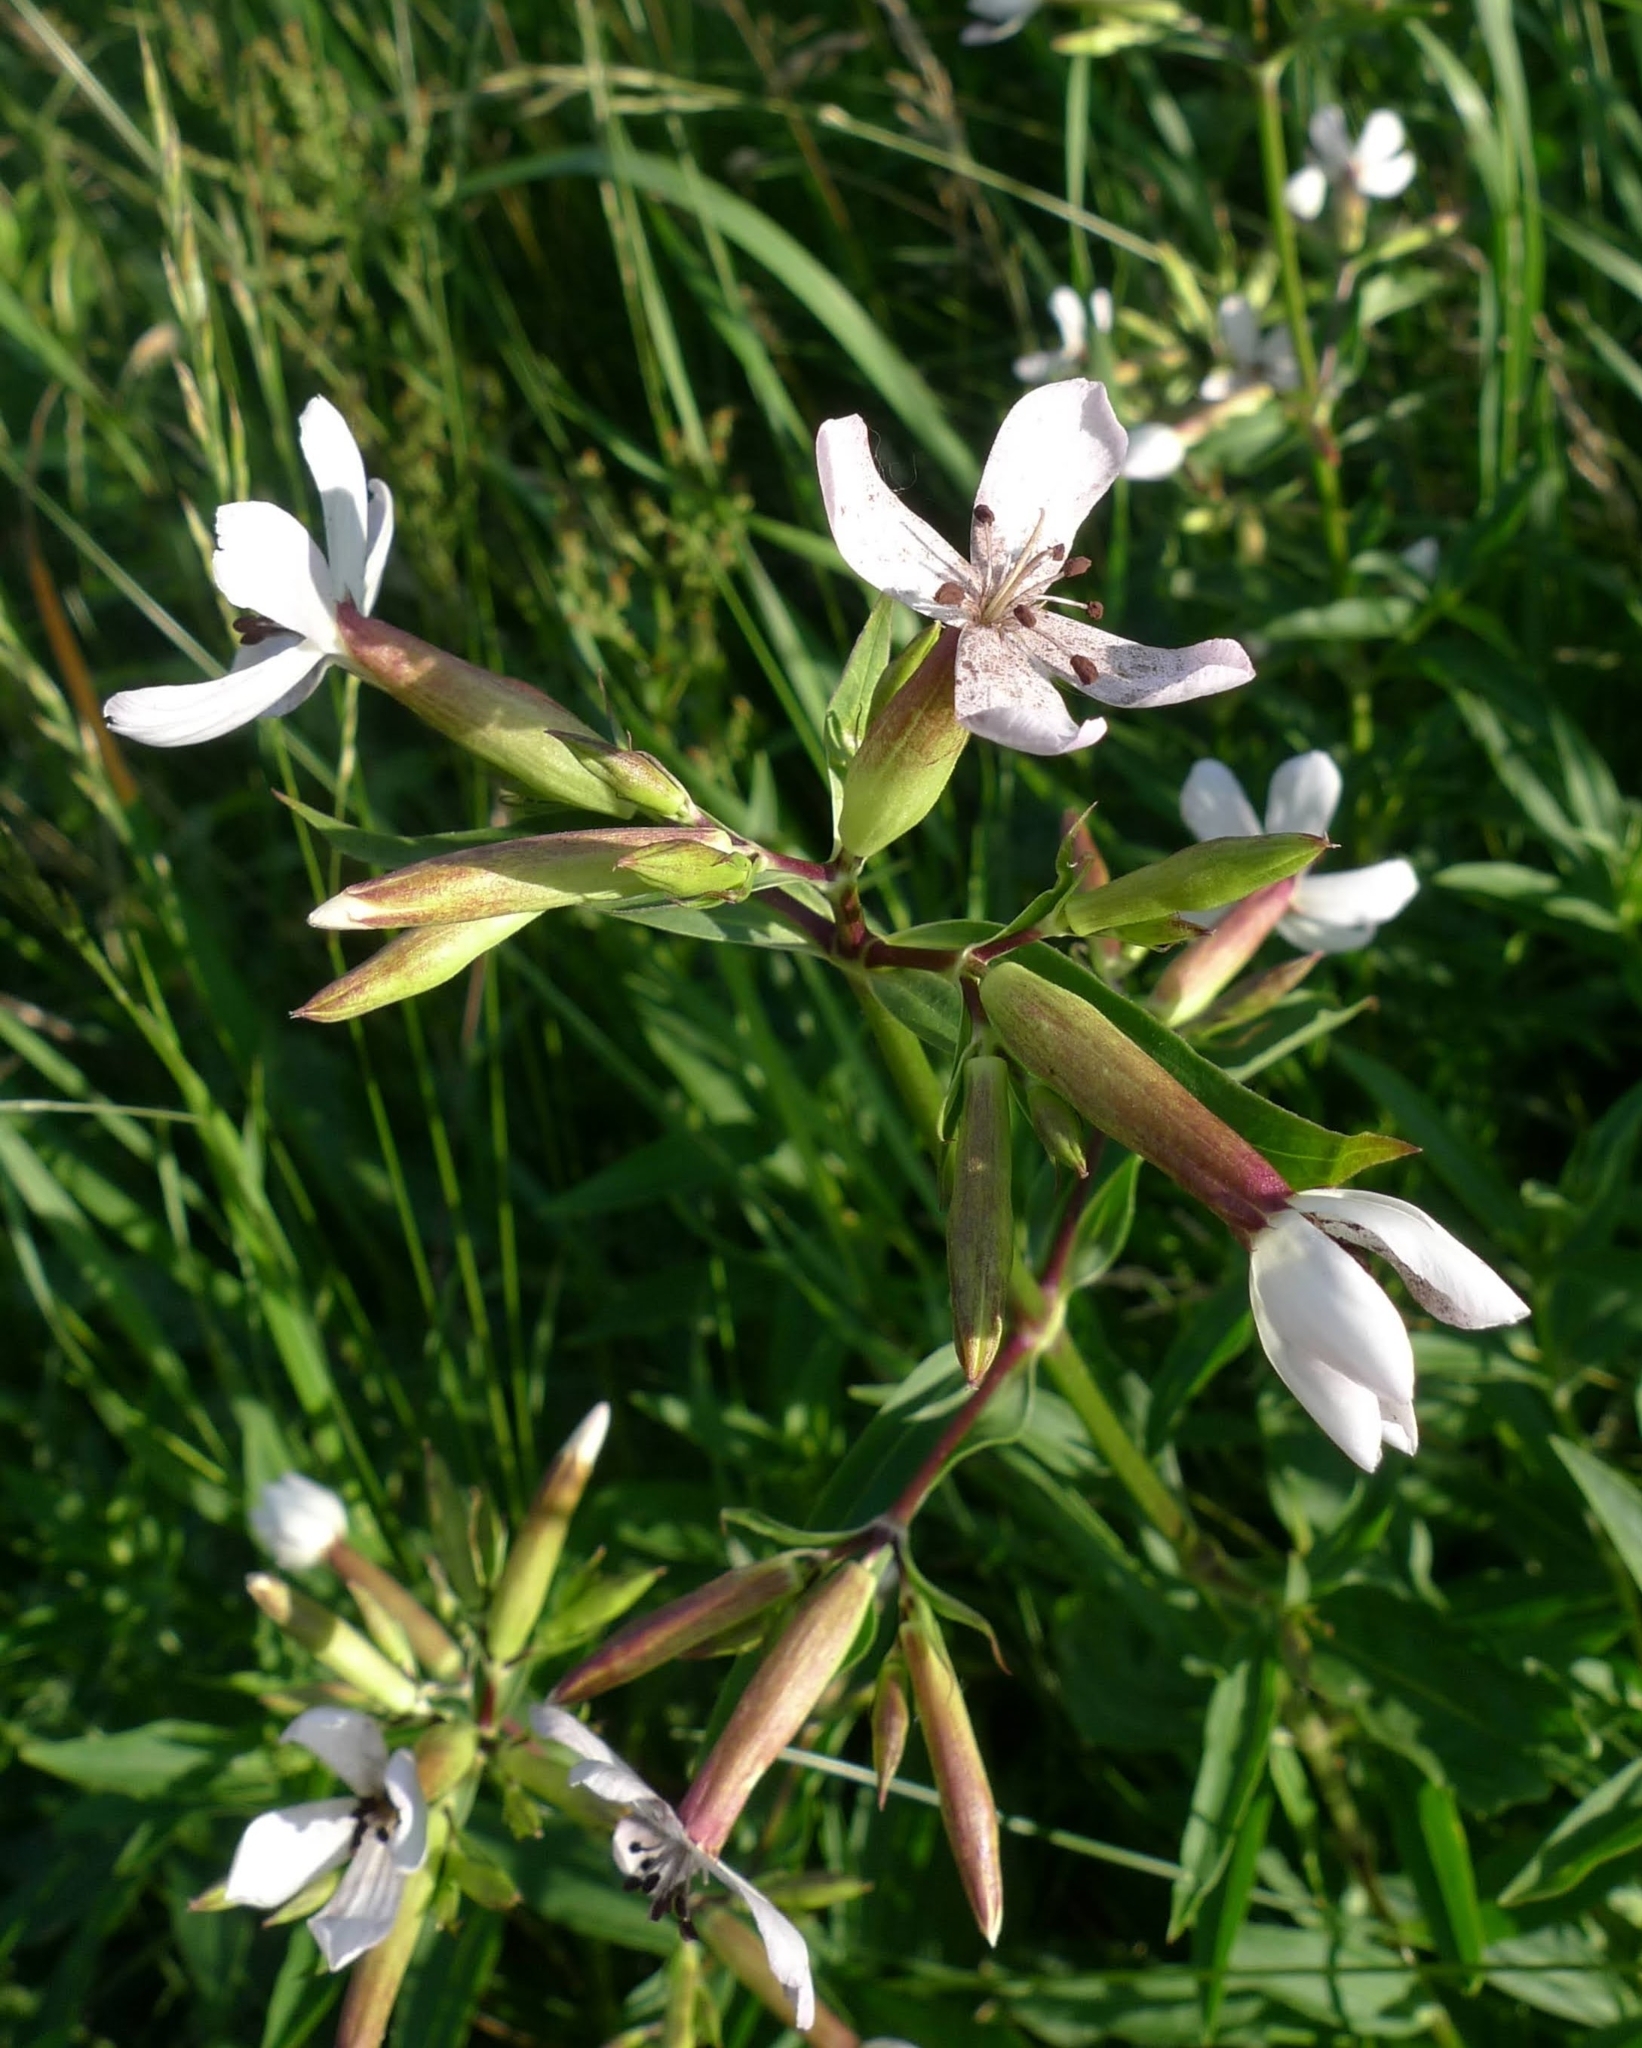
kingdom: Plantae
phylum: Tracheophyta
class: Magnoliopsida
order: Caryophyllales
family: Caryophyllaceae
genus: Saponaria
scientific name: Saponaria officinalis
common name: Soapwort
